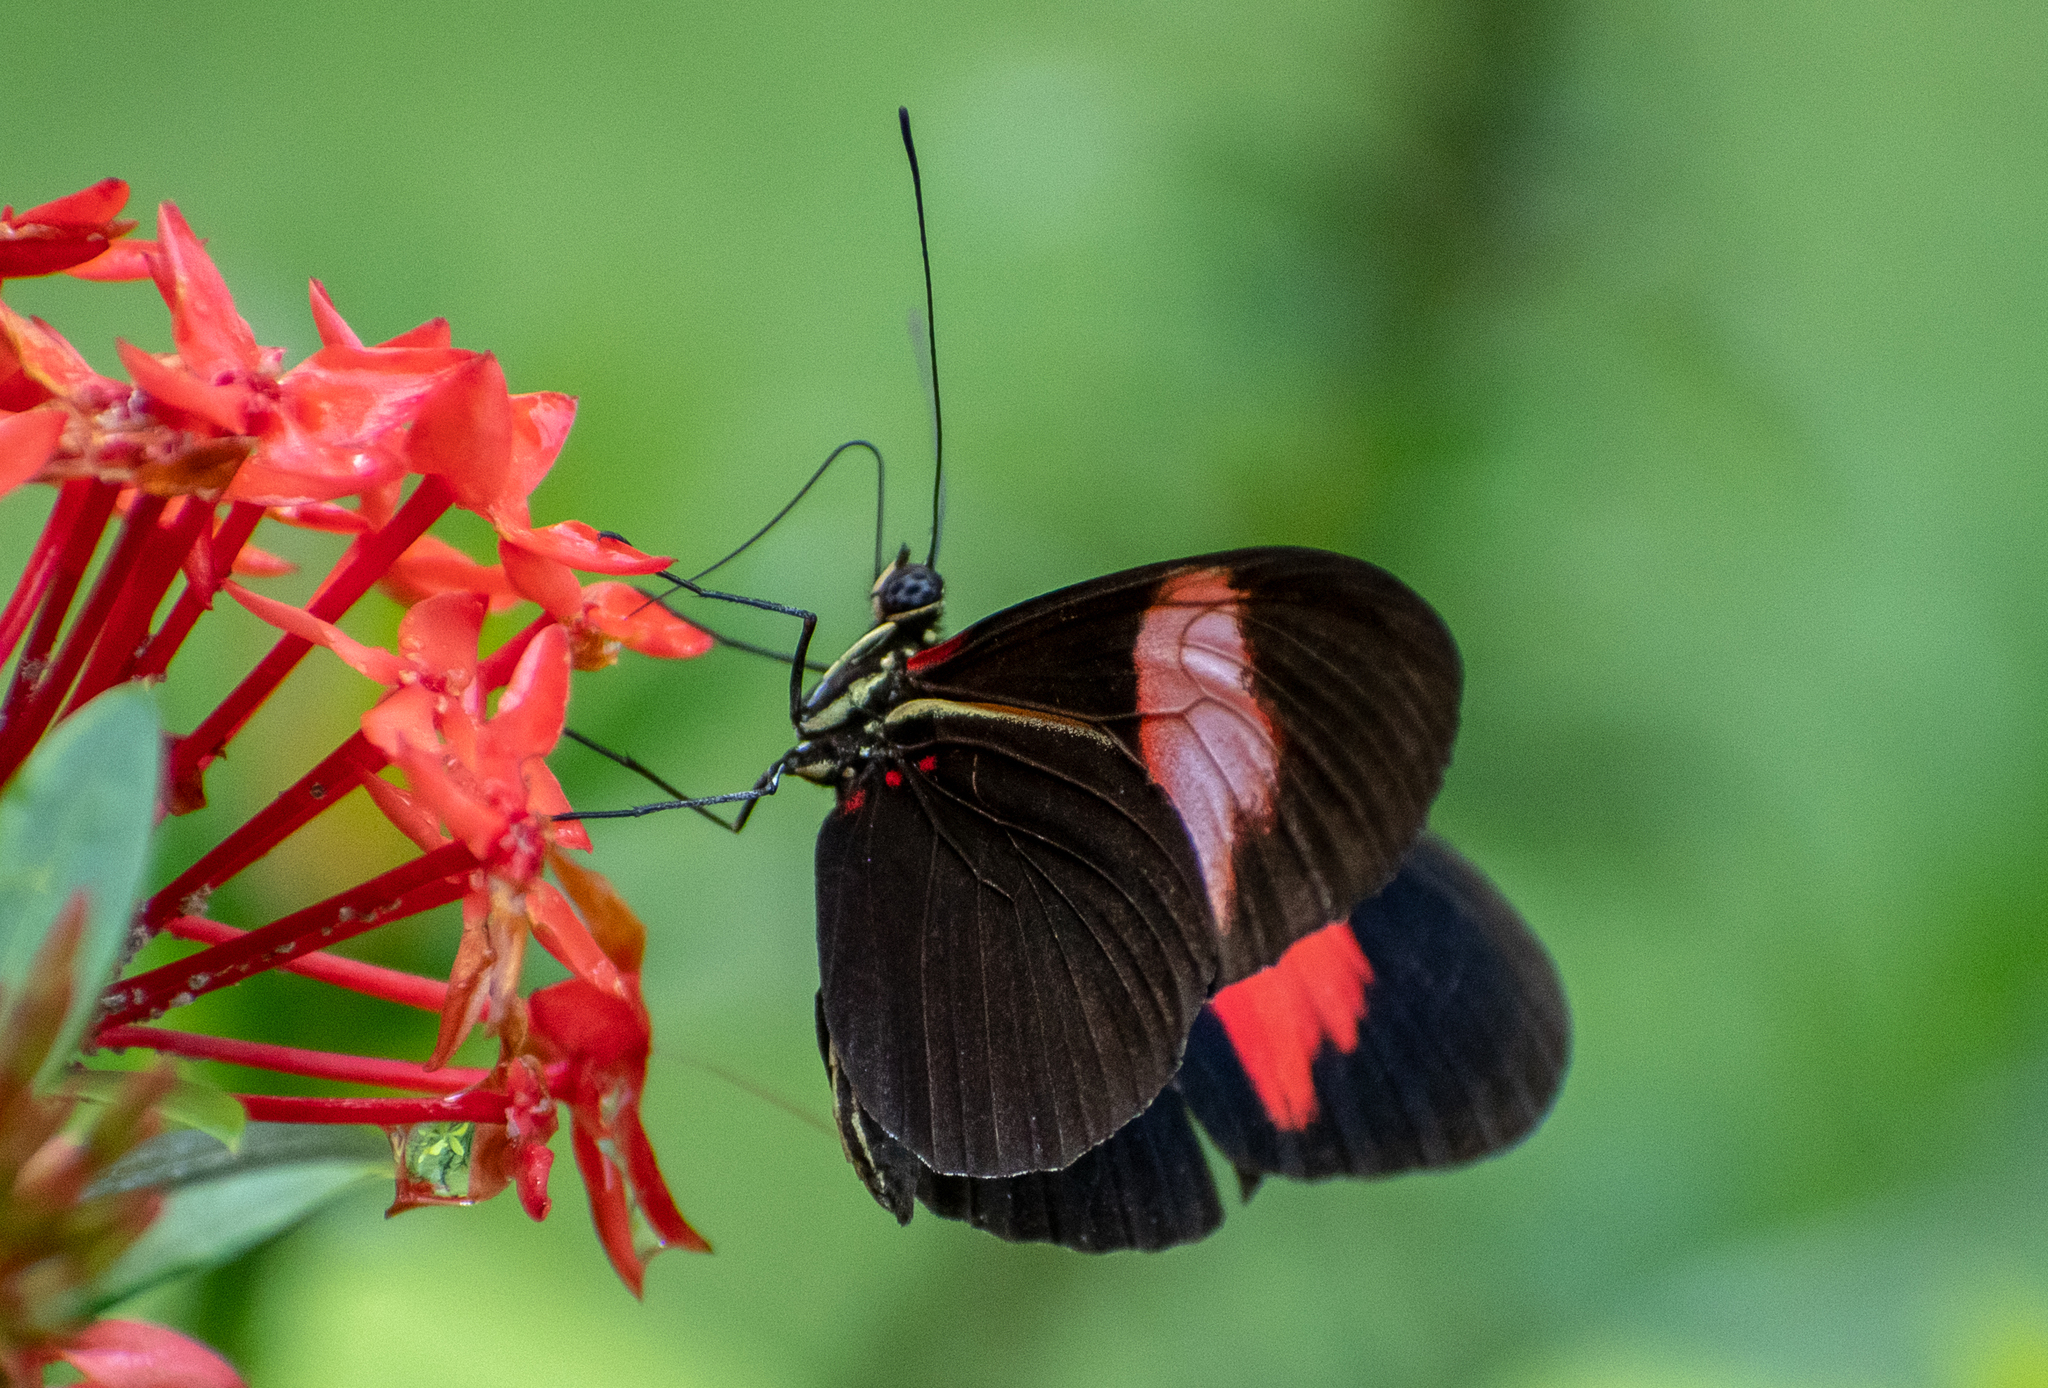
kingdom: Animalia
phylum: Arthropoda
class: Insecta
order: Lepidoptera
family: Nymphalidae
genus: Heliconius
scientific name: Heliconius melpomene
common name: Postman
